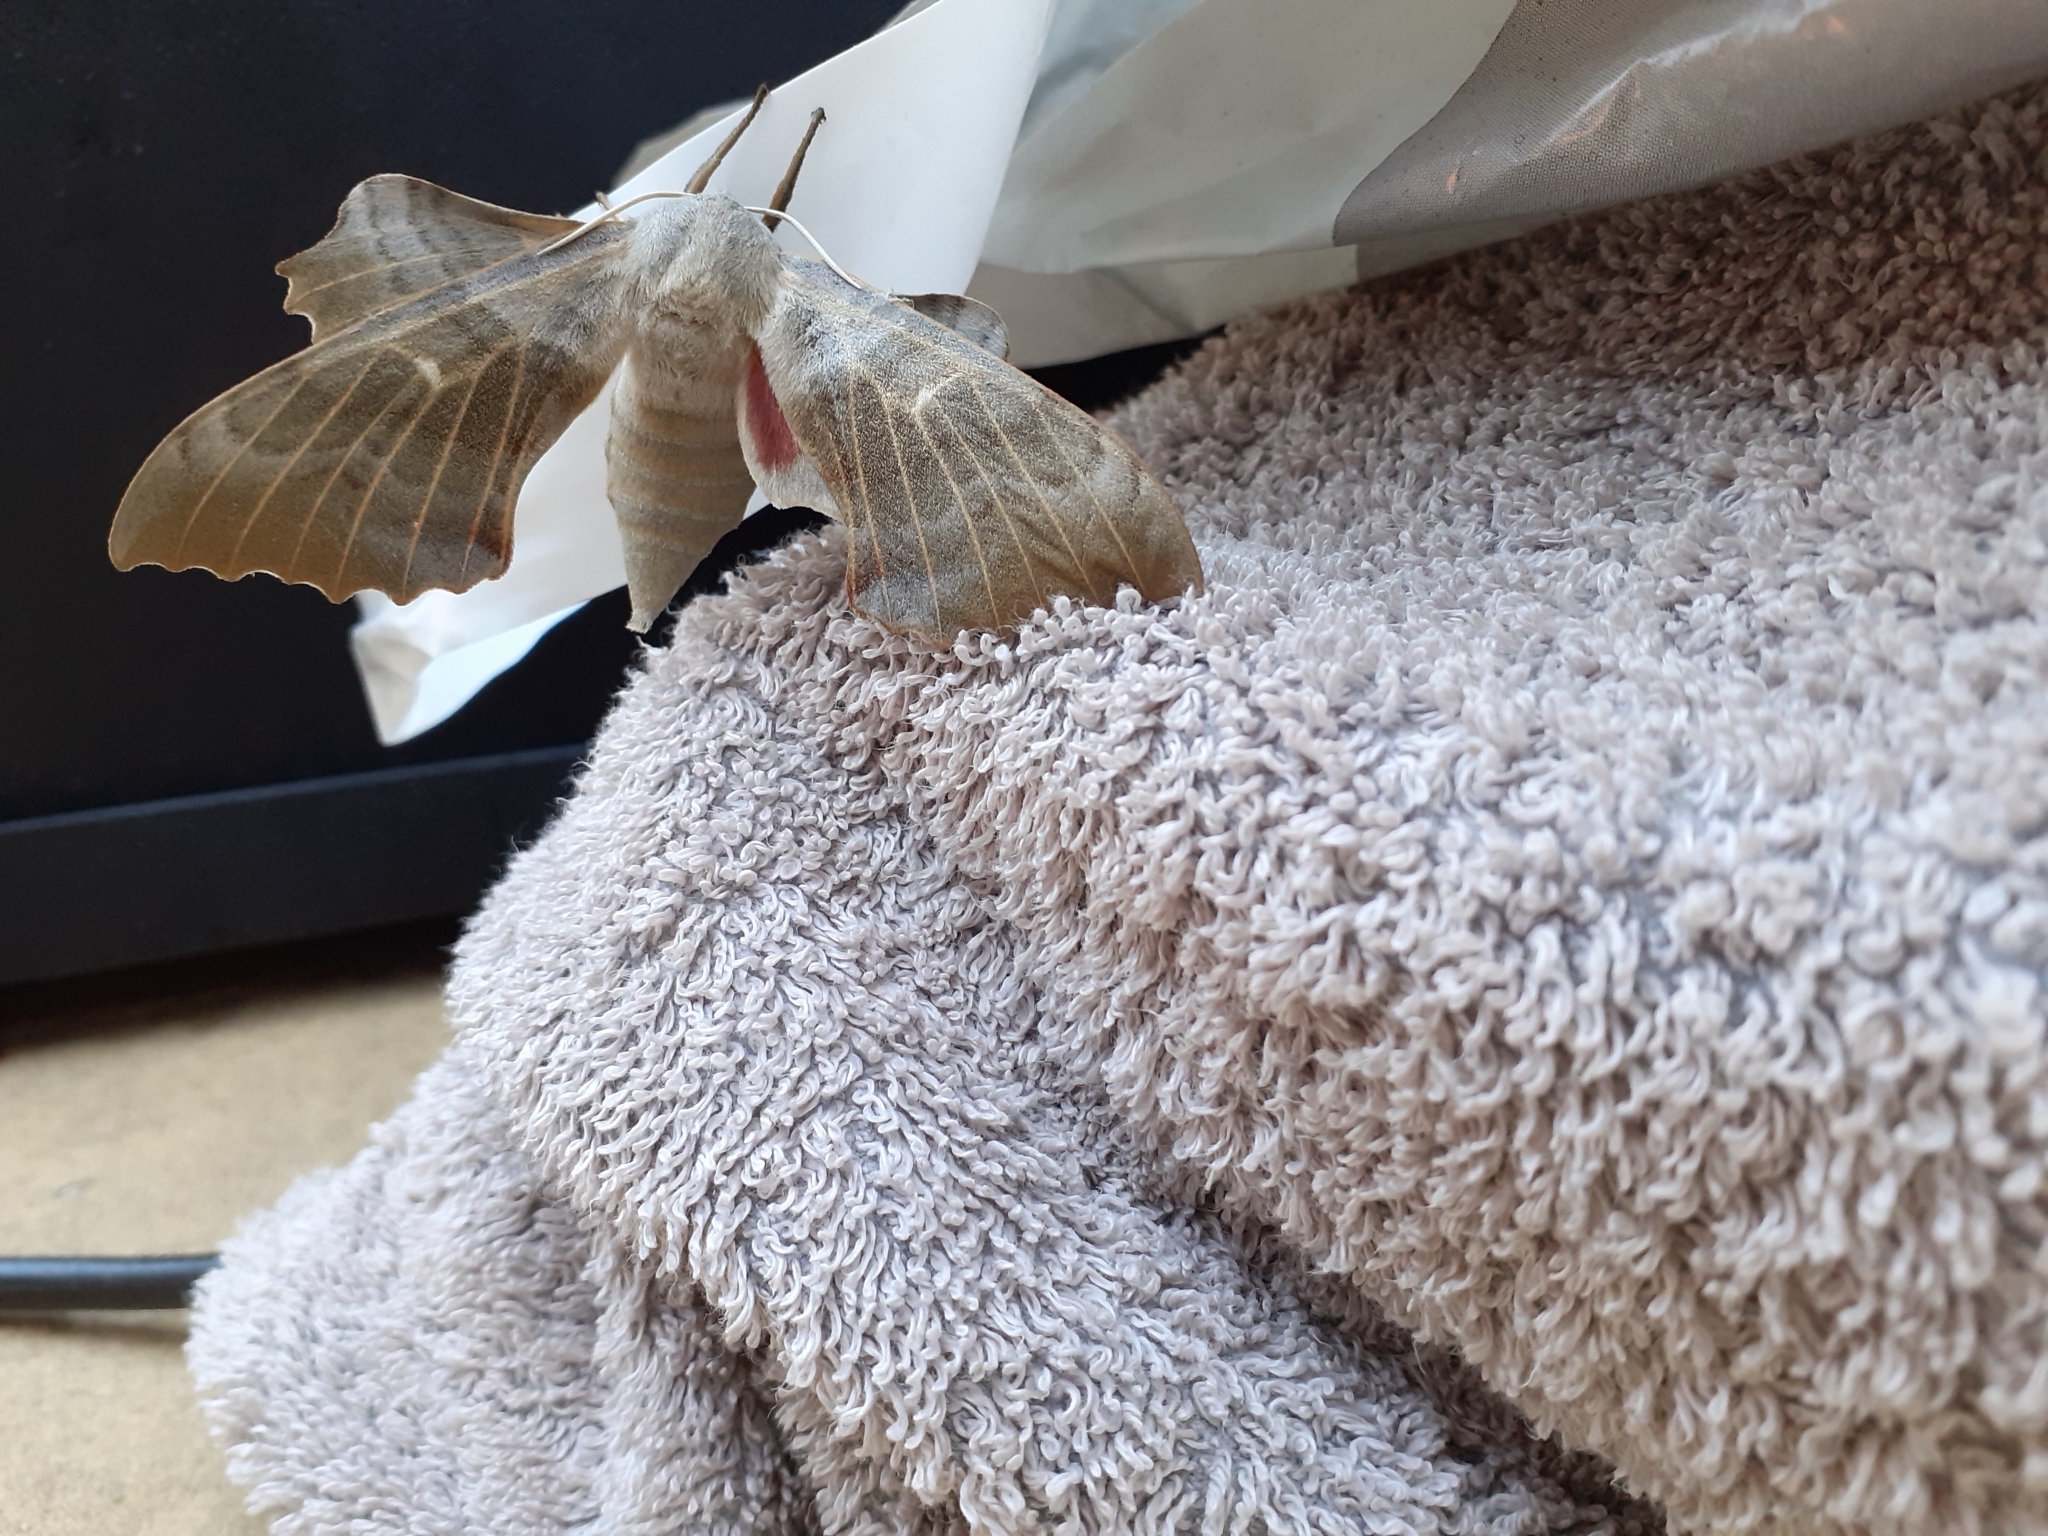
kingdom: Animalia
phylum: Arthropoda
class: Insecta
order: Lepidoptera
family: Sphingidae
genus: Laothoe
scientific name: Laothoe populi
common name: Poplar hawk-moth
